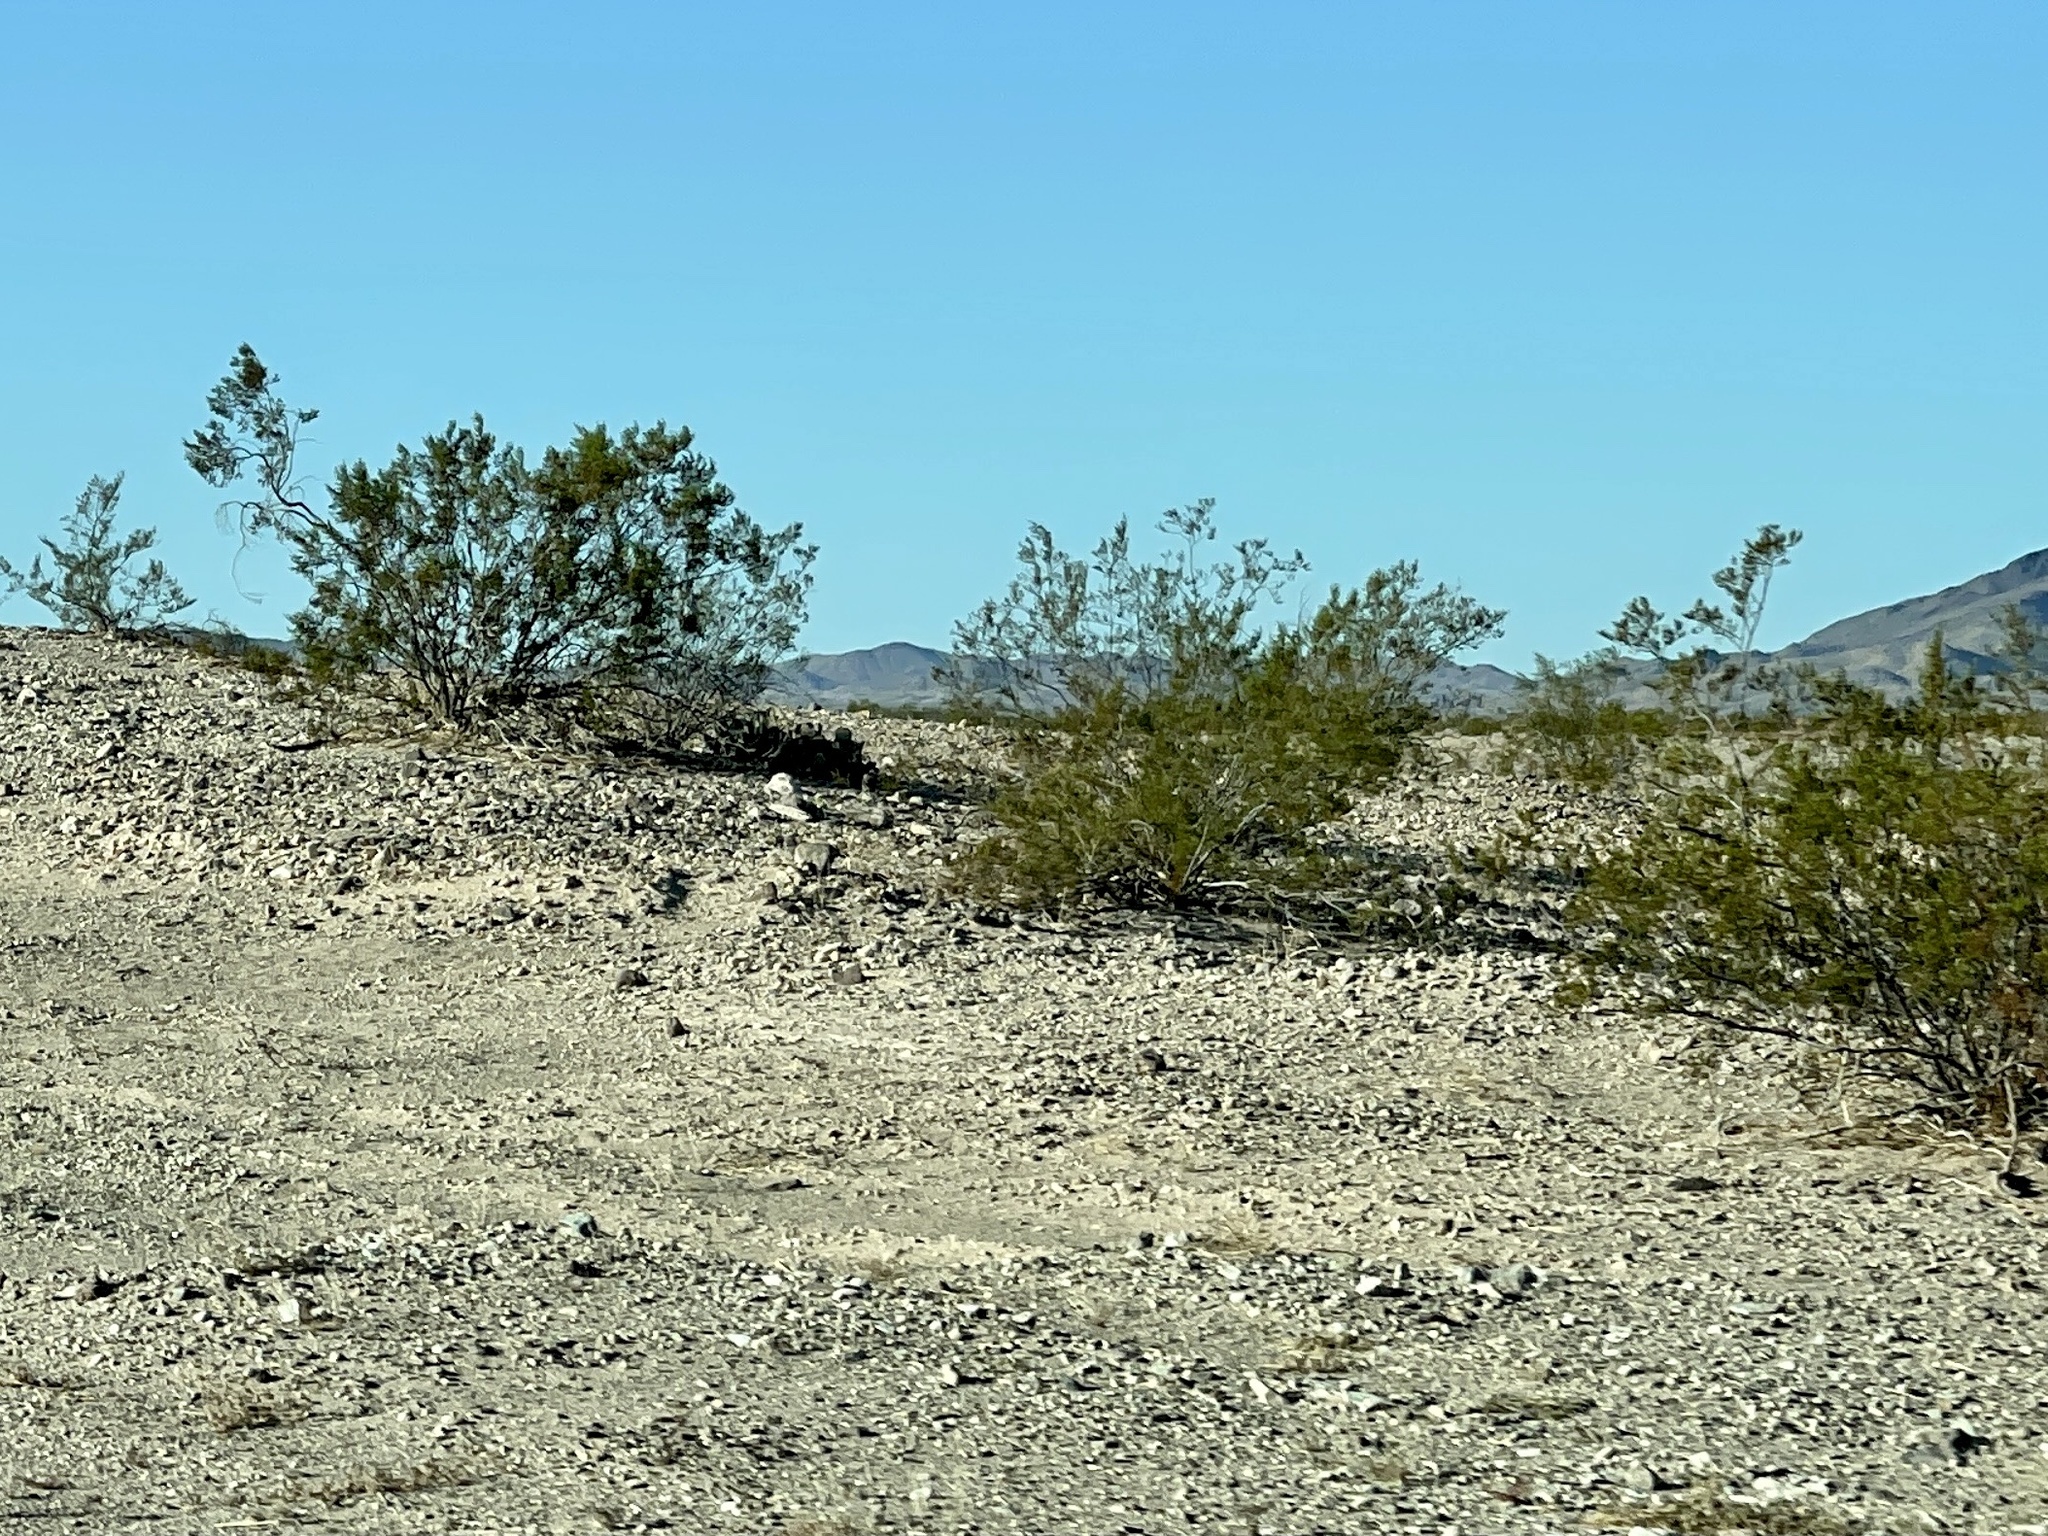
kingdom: Plantae
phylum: Tracheophyta
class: Magnoliopsida
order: Zygophyllales
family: Zygophyllaceae
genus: Larrea
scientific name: Larrea tridentata
